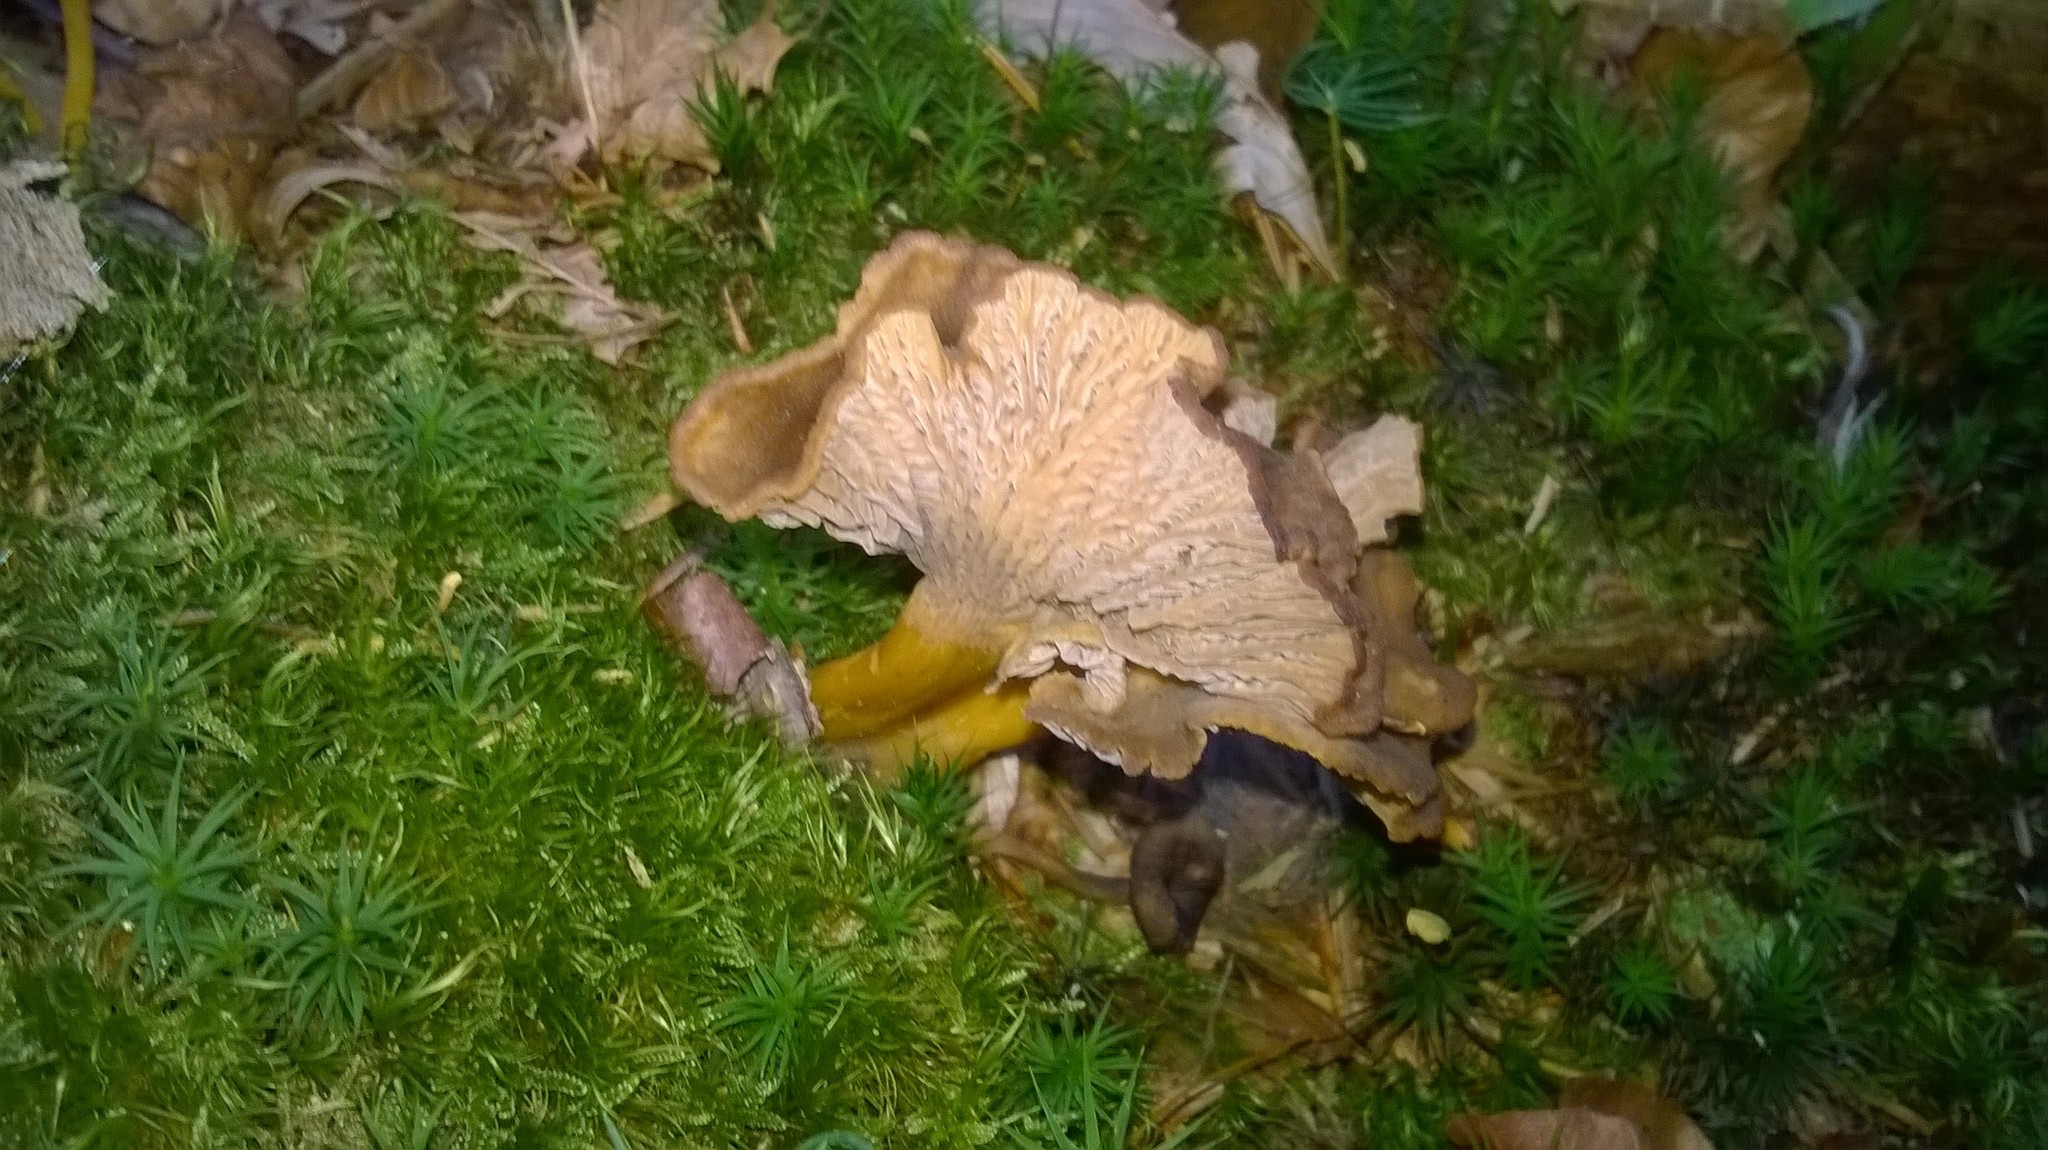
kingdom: Fungi
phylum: Basidiomycota
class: Agaricomycetes
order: Cantharellales
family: Hydnaceae
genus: Craterellus
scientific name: Craterellus tubaeformis
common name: Yellowfoot
